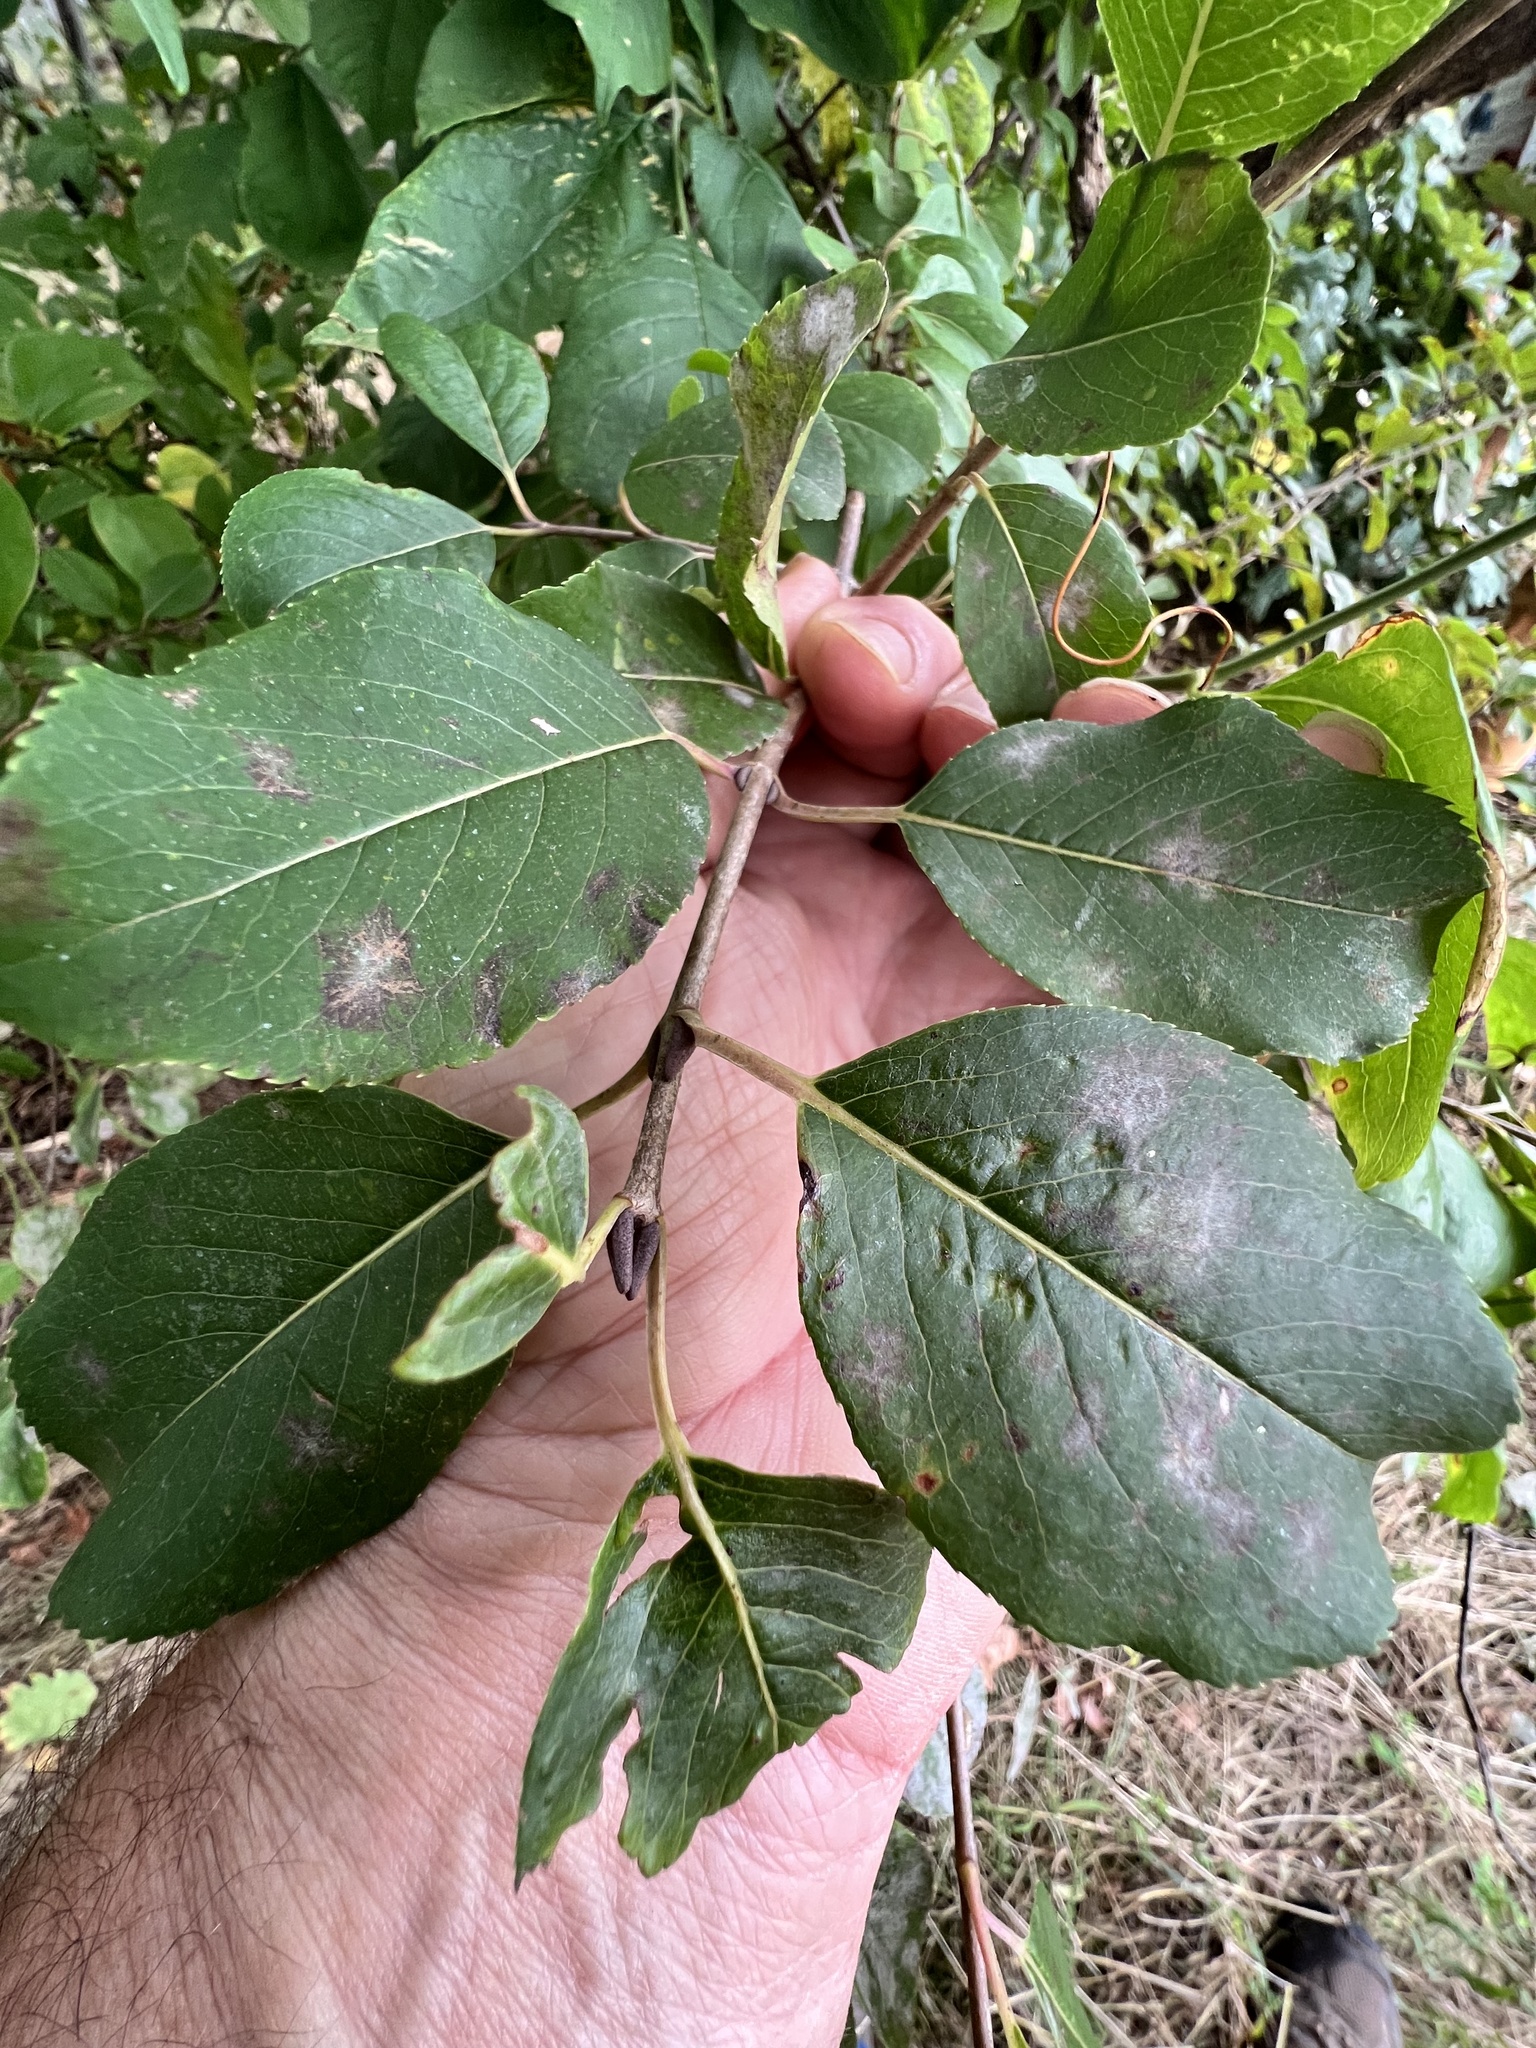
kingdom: Fungi
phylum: Ascomycota
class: Leotiomycetes
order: Helotiales
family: Erysiphaceae
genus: Erysiphe
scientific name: Erysiphe viburni
